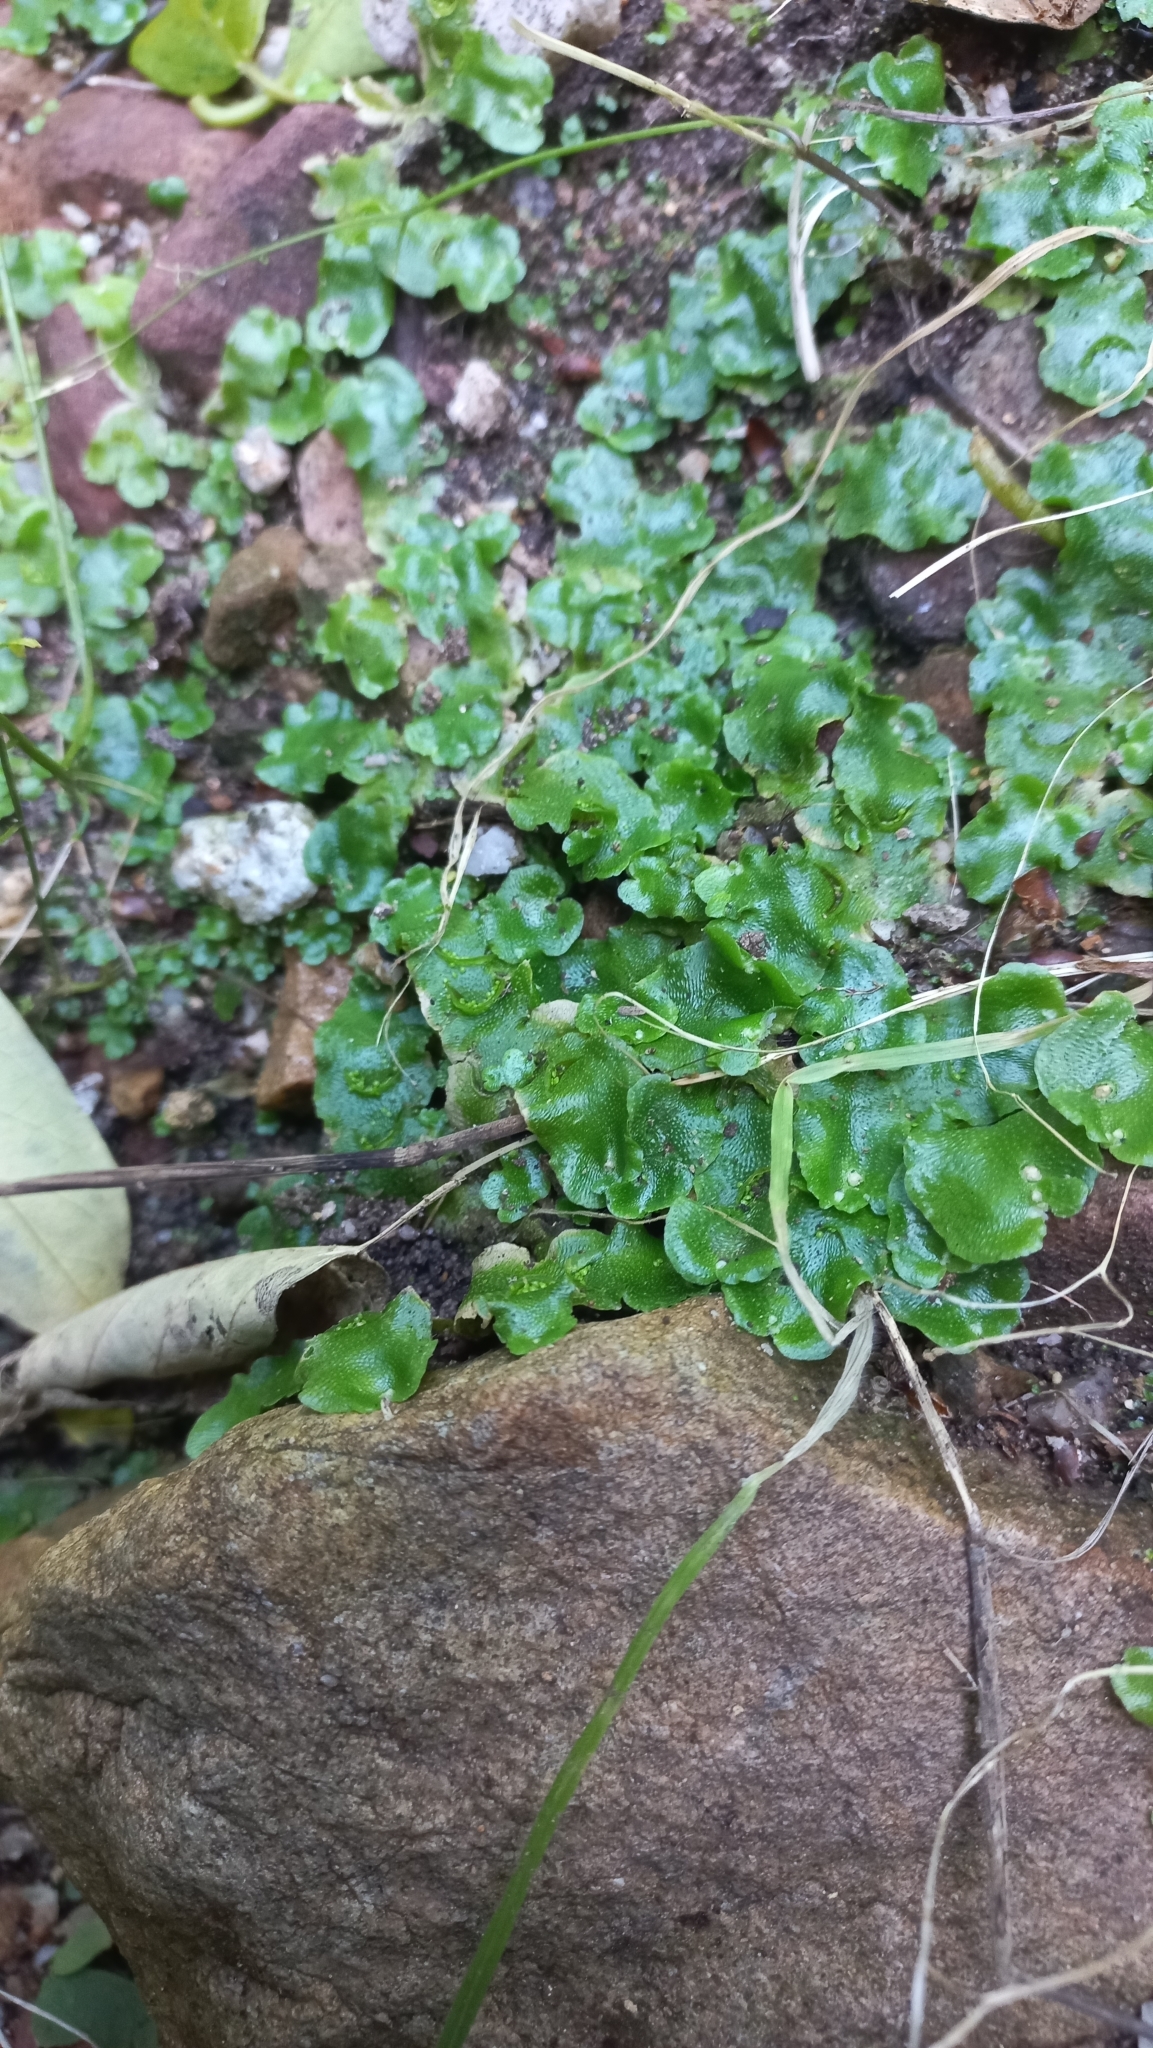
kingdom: Plantae
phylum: Marchantiophyta
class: Marchantiopsida
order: Lunulariales
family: Lunulariaceae
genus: Lunularia
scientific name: Lunularia cruciata
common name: Crescent-cup liverwort
